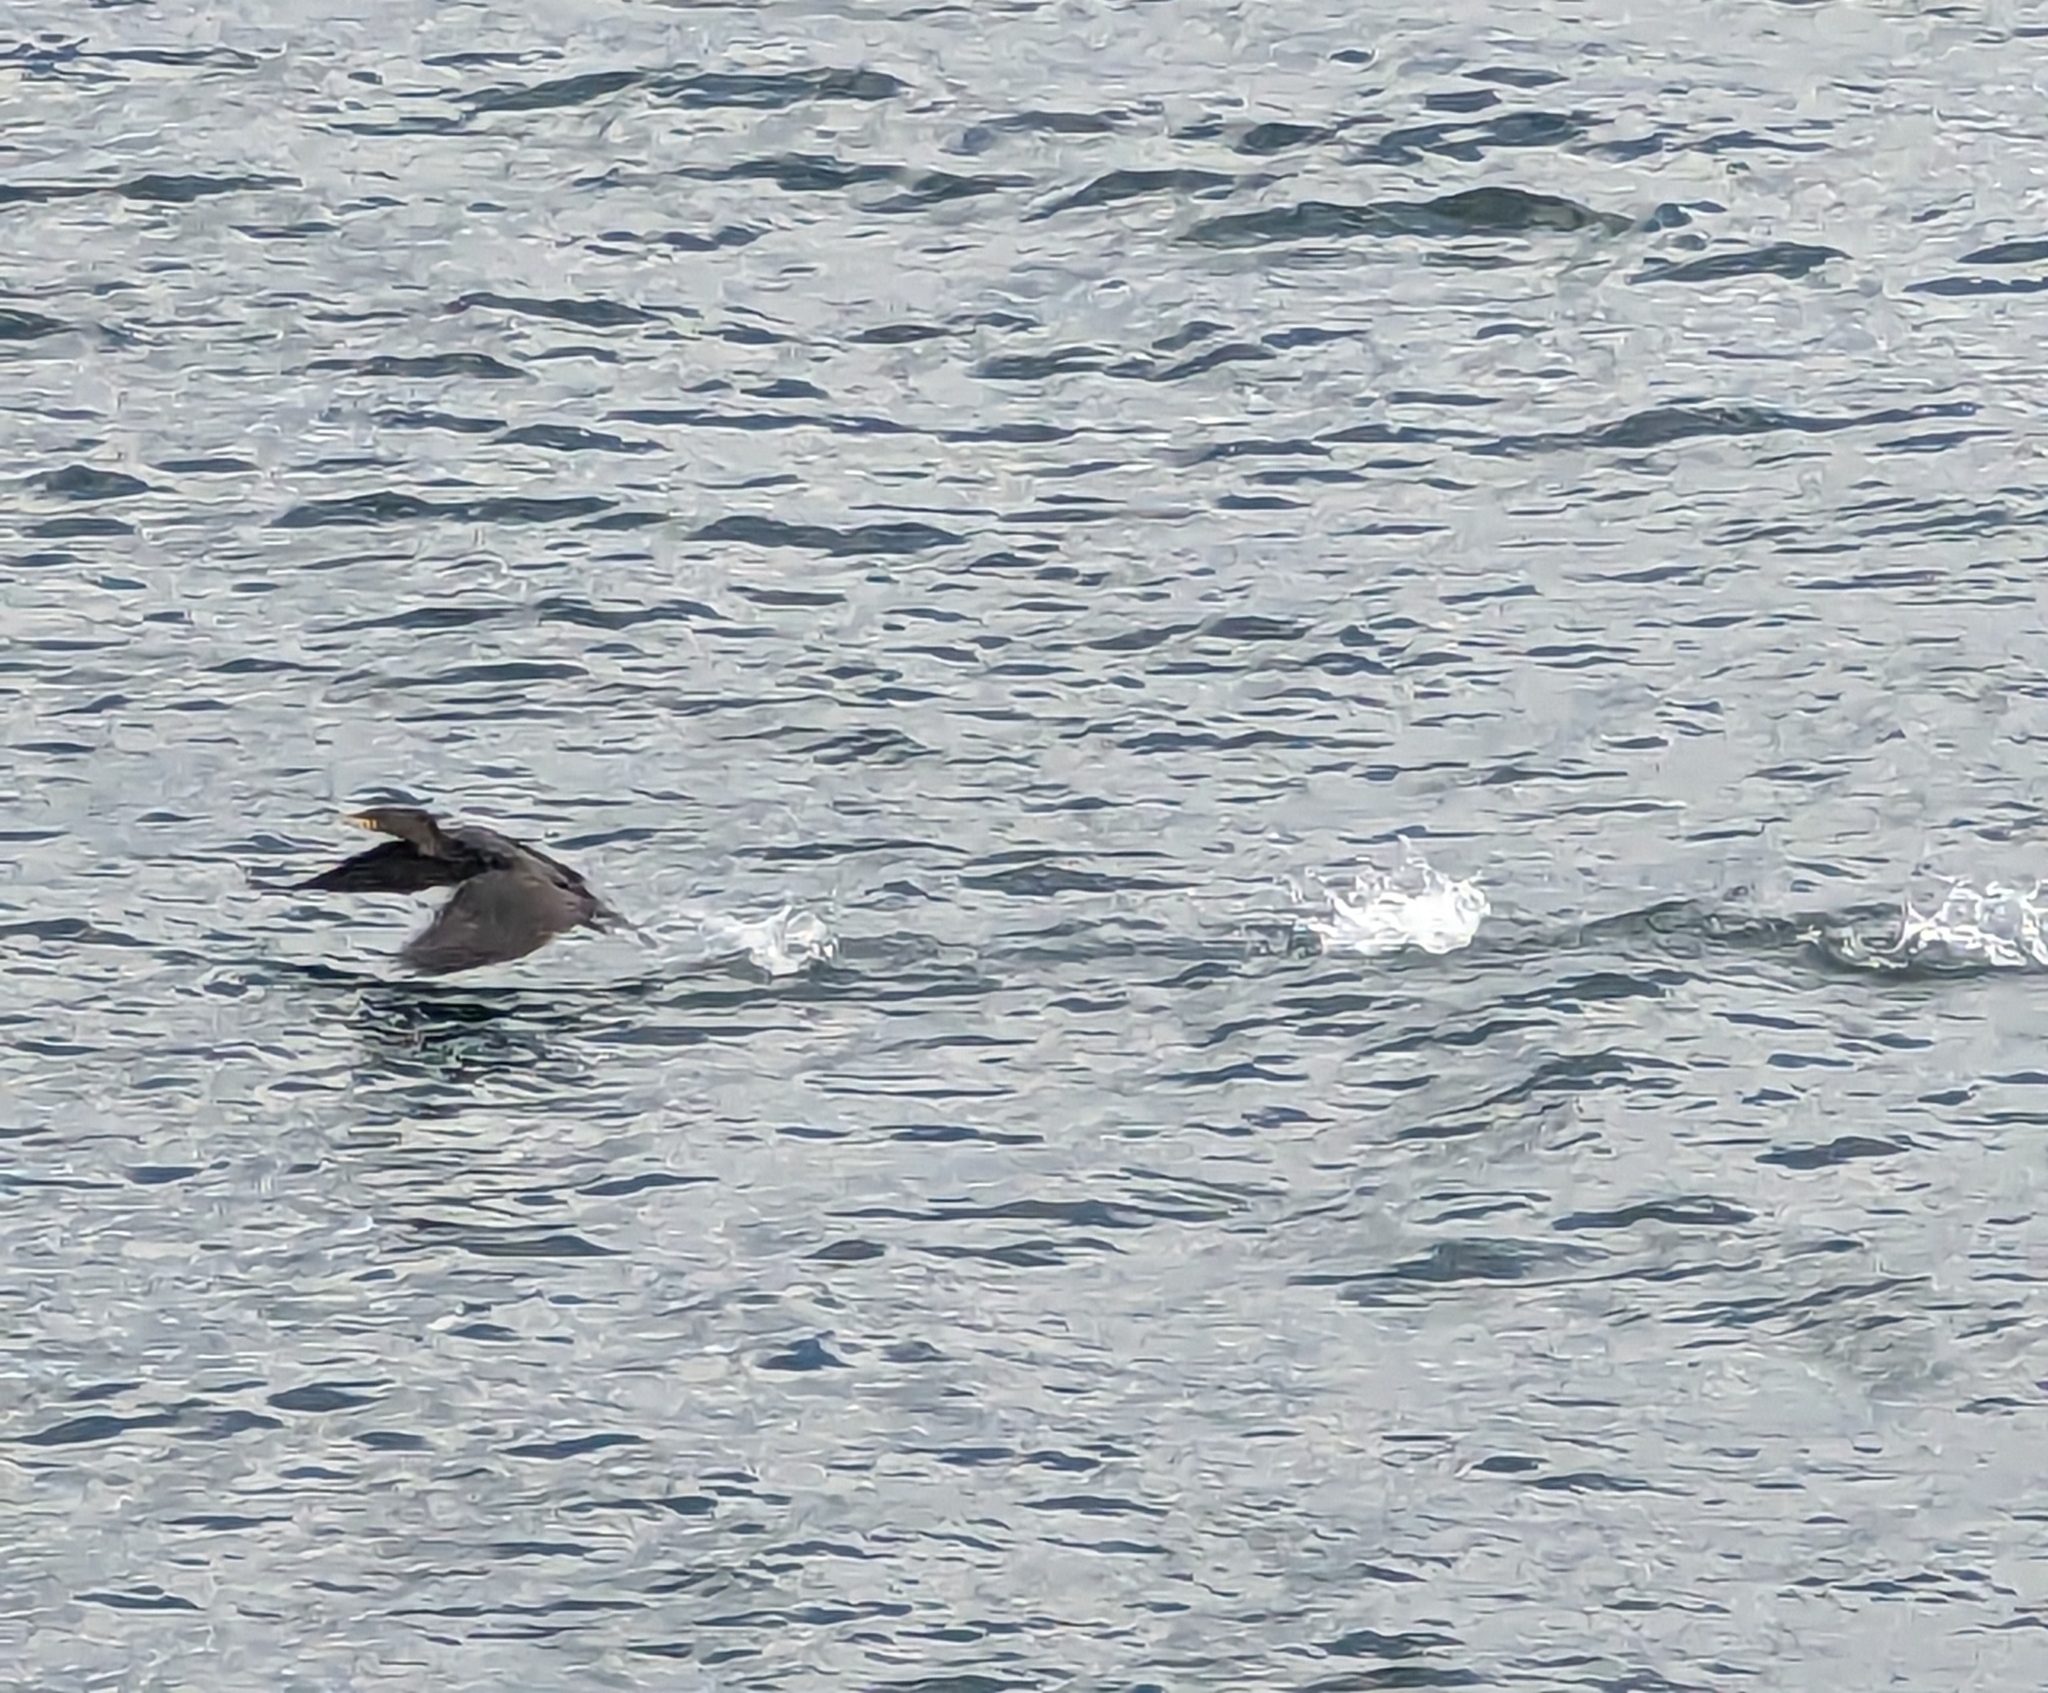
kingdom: Animalia
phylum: Chordata
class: Aves
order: Suliformes
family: Phalacrocoracidae
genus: Phalacrocorax
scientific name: Phalacrocorax auritus
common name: Double-crested cormorant
